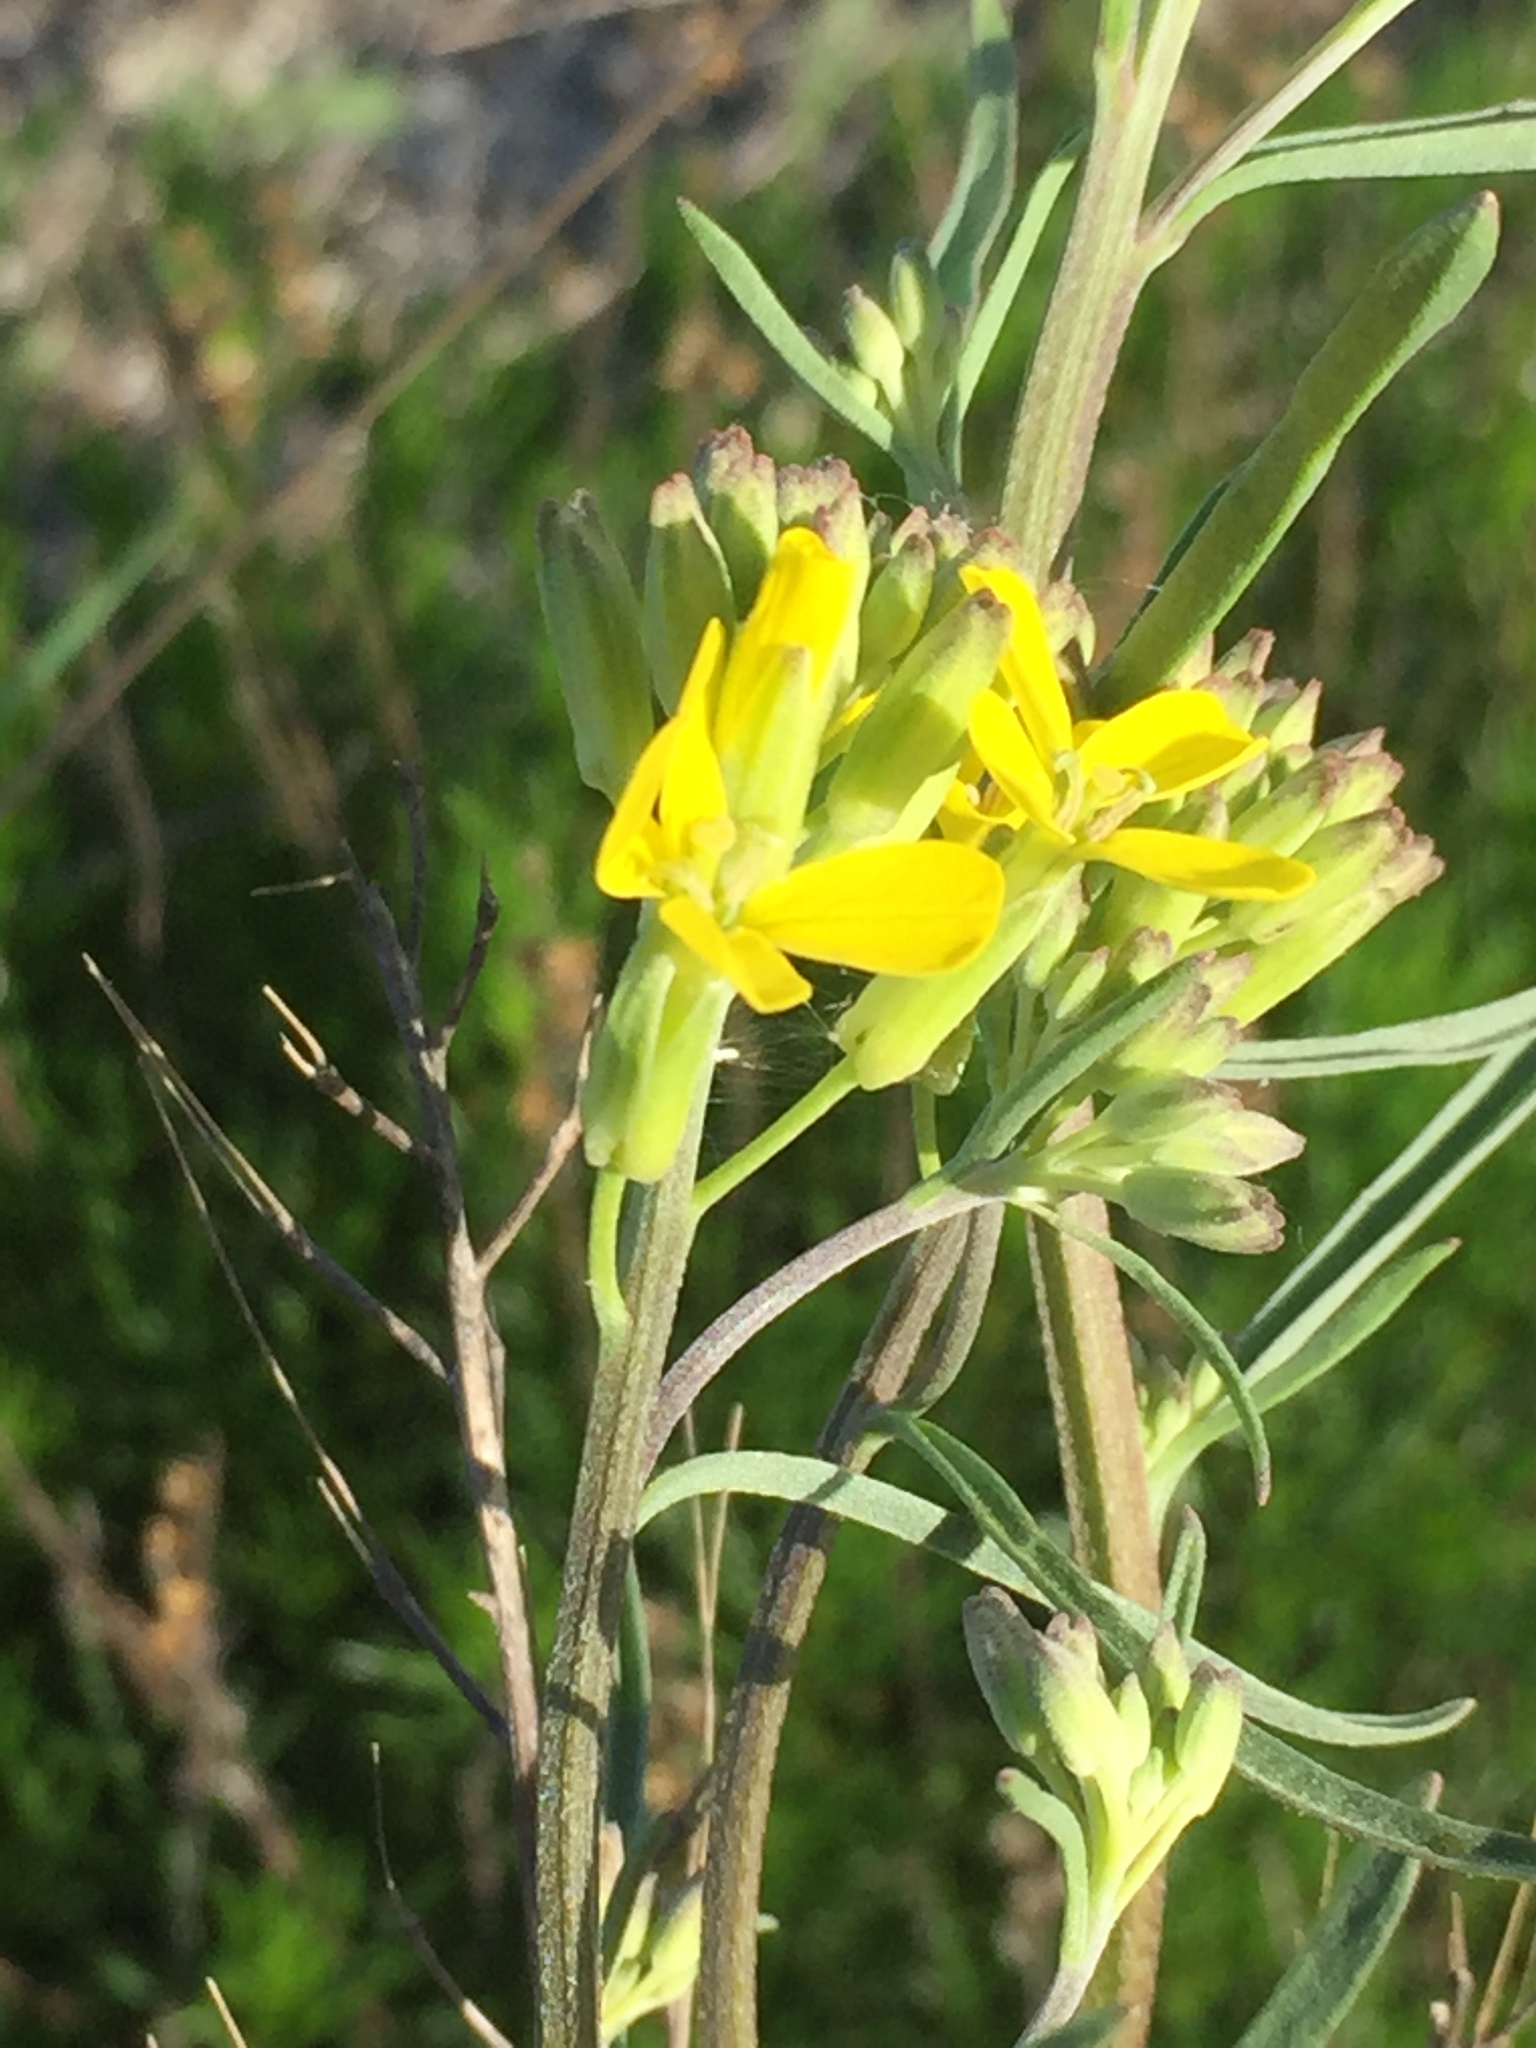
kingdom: Plantae
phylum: Tracheophyta
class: Magnoliopsida
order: Brassicales
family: Brassicaceae
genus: Erysimum
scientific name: Erysimum diffusum
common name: Diffuse wallflower
